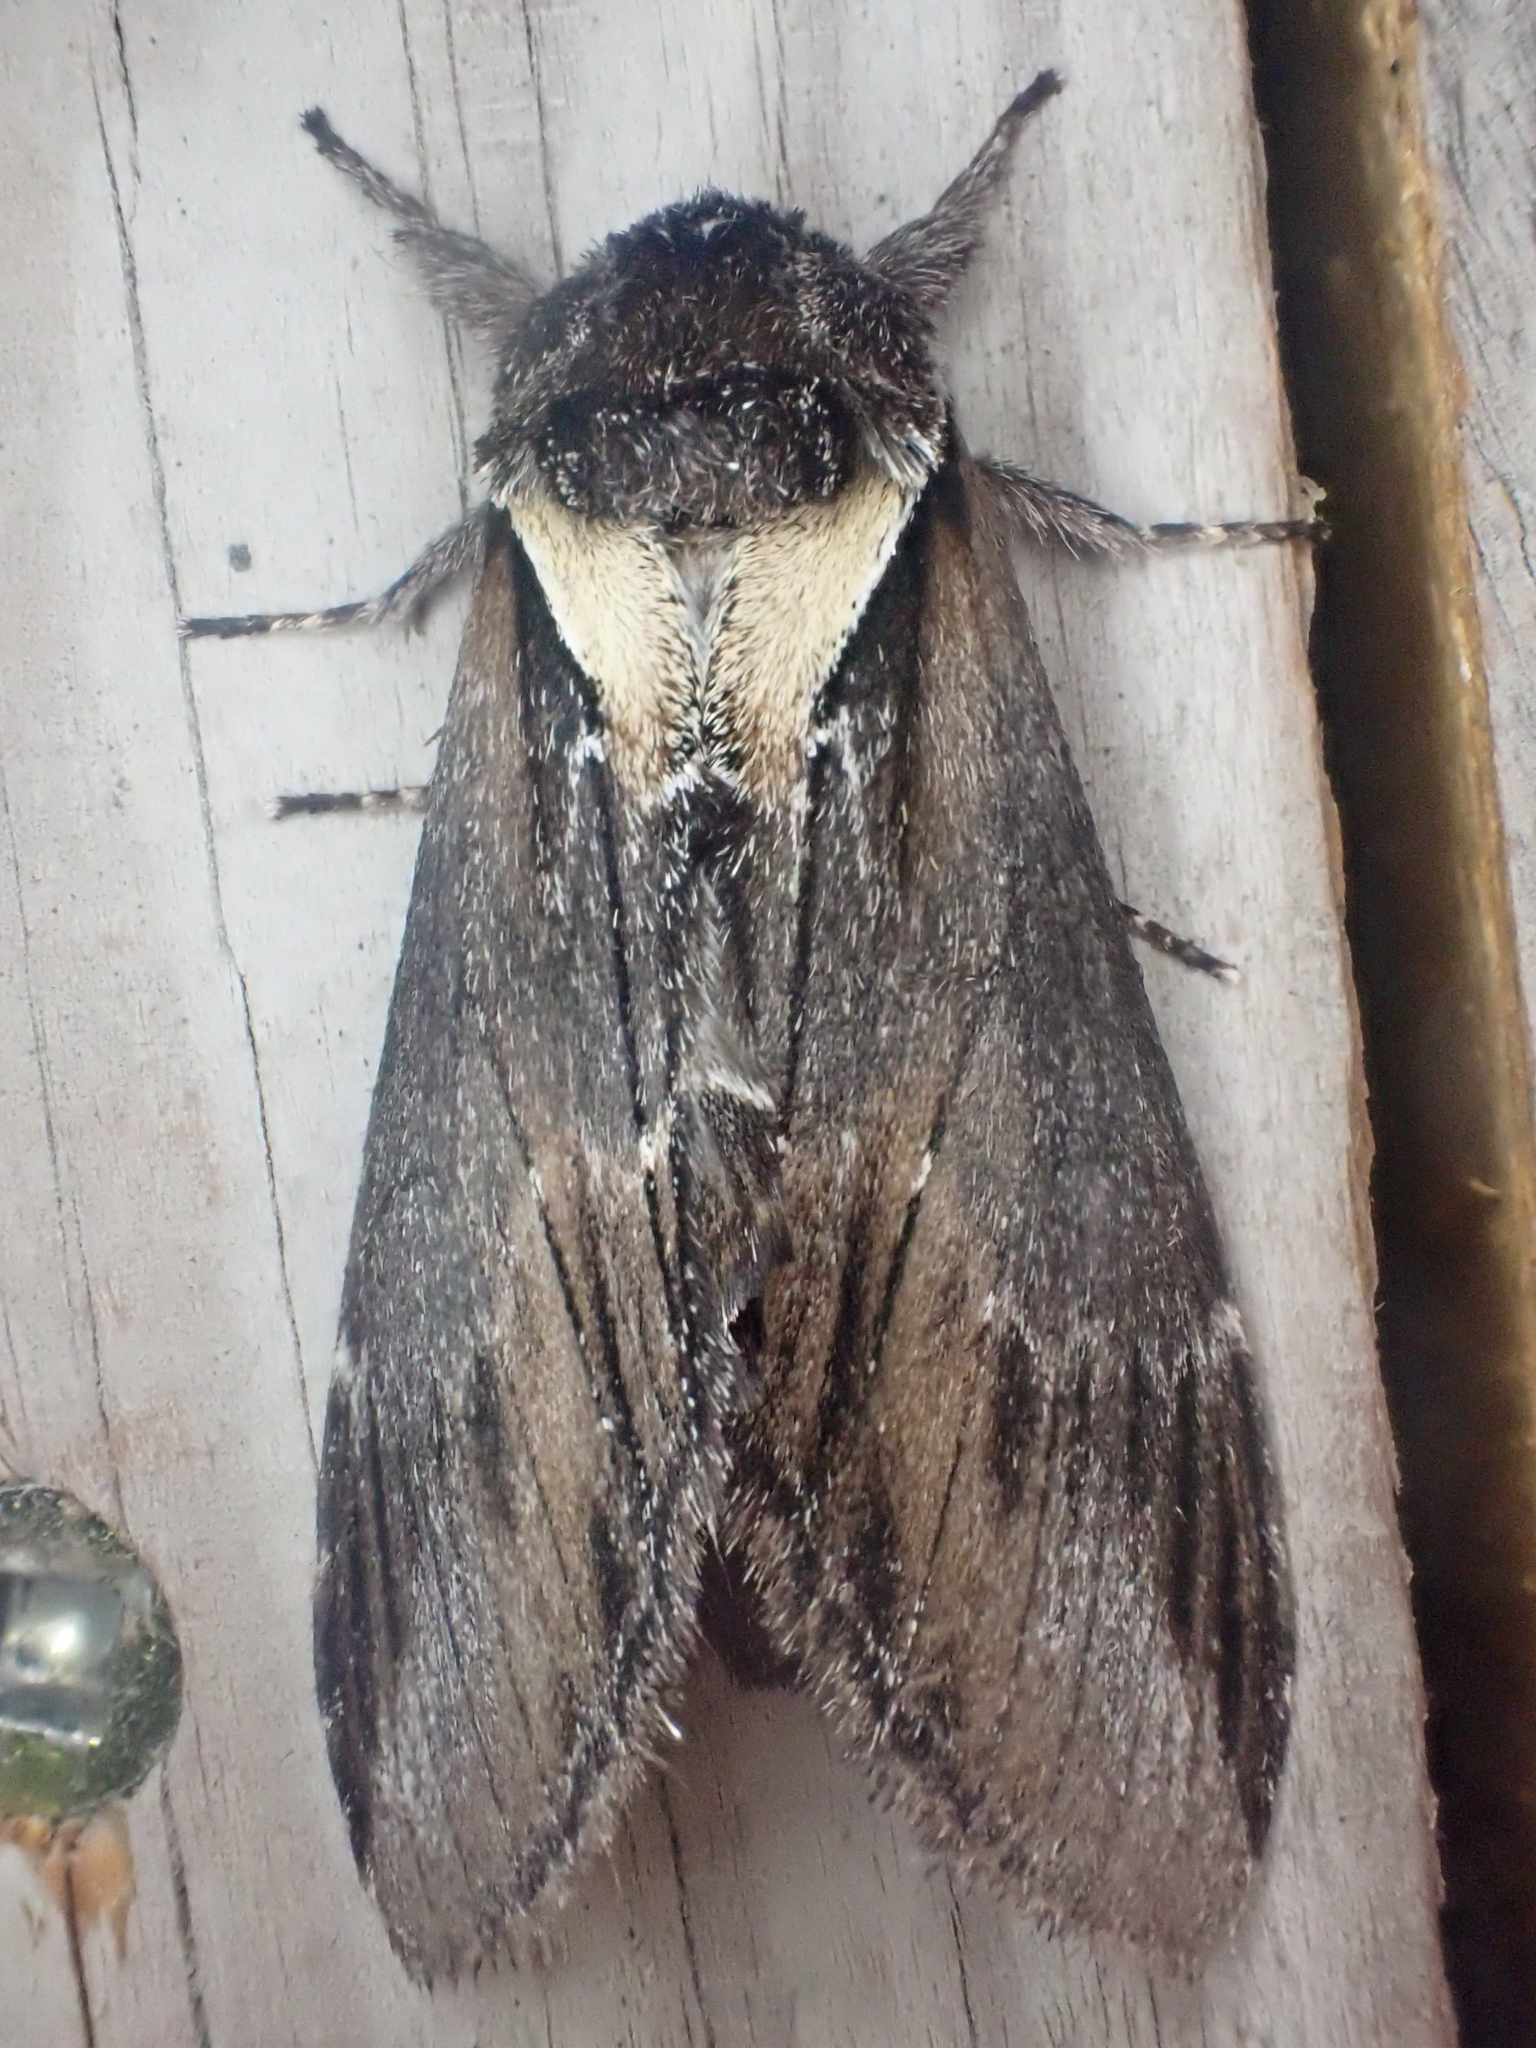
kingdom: Animalia
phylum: Arthropoda
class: Insecta
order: Lepidoptera
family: Notodontidae
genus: Pheosia
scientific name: Pheosia rimosa
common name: Black-rimmed prominent
